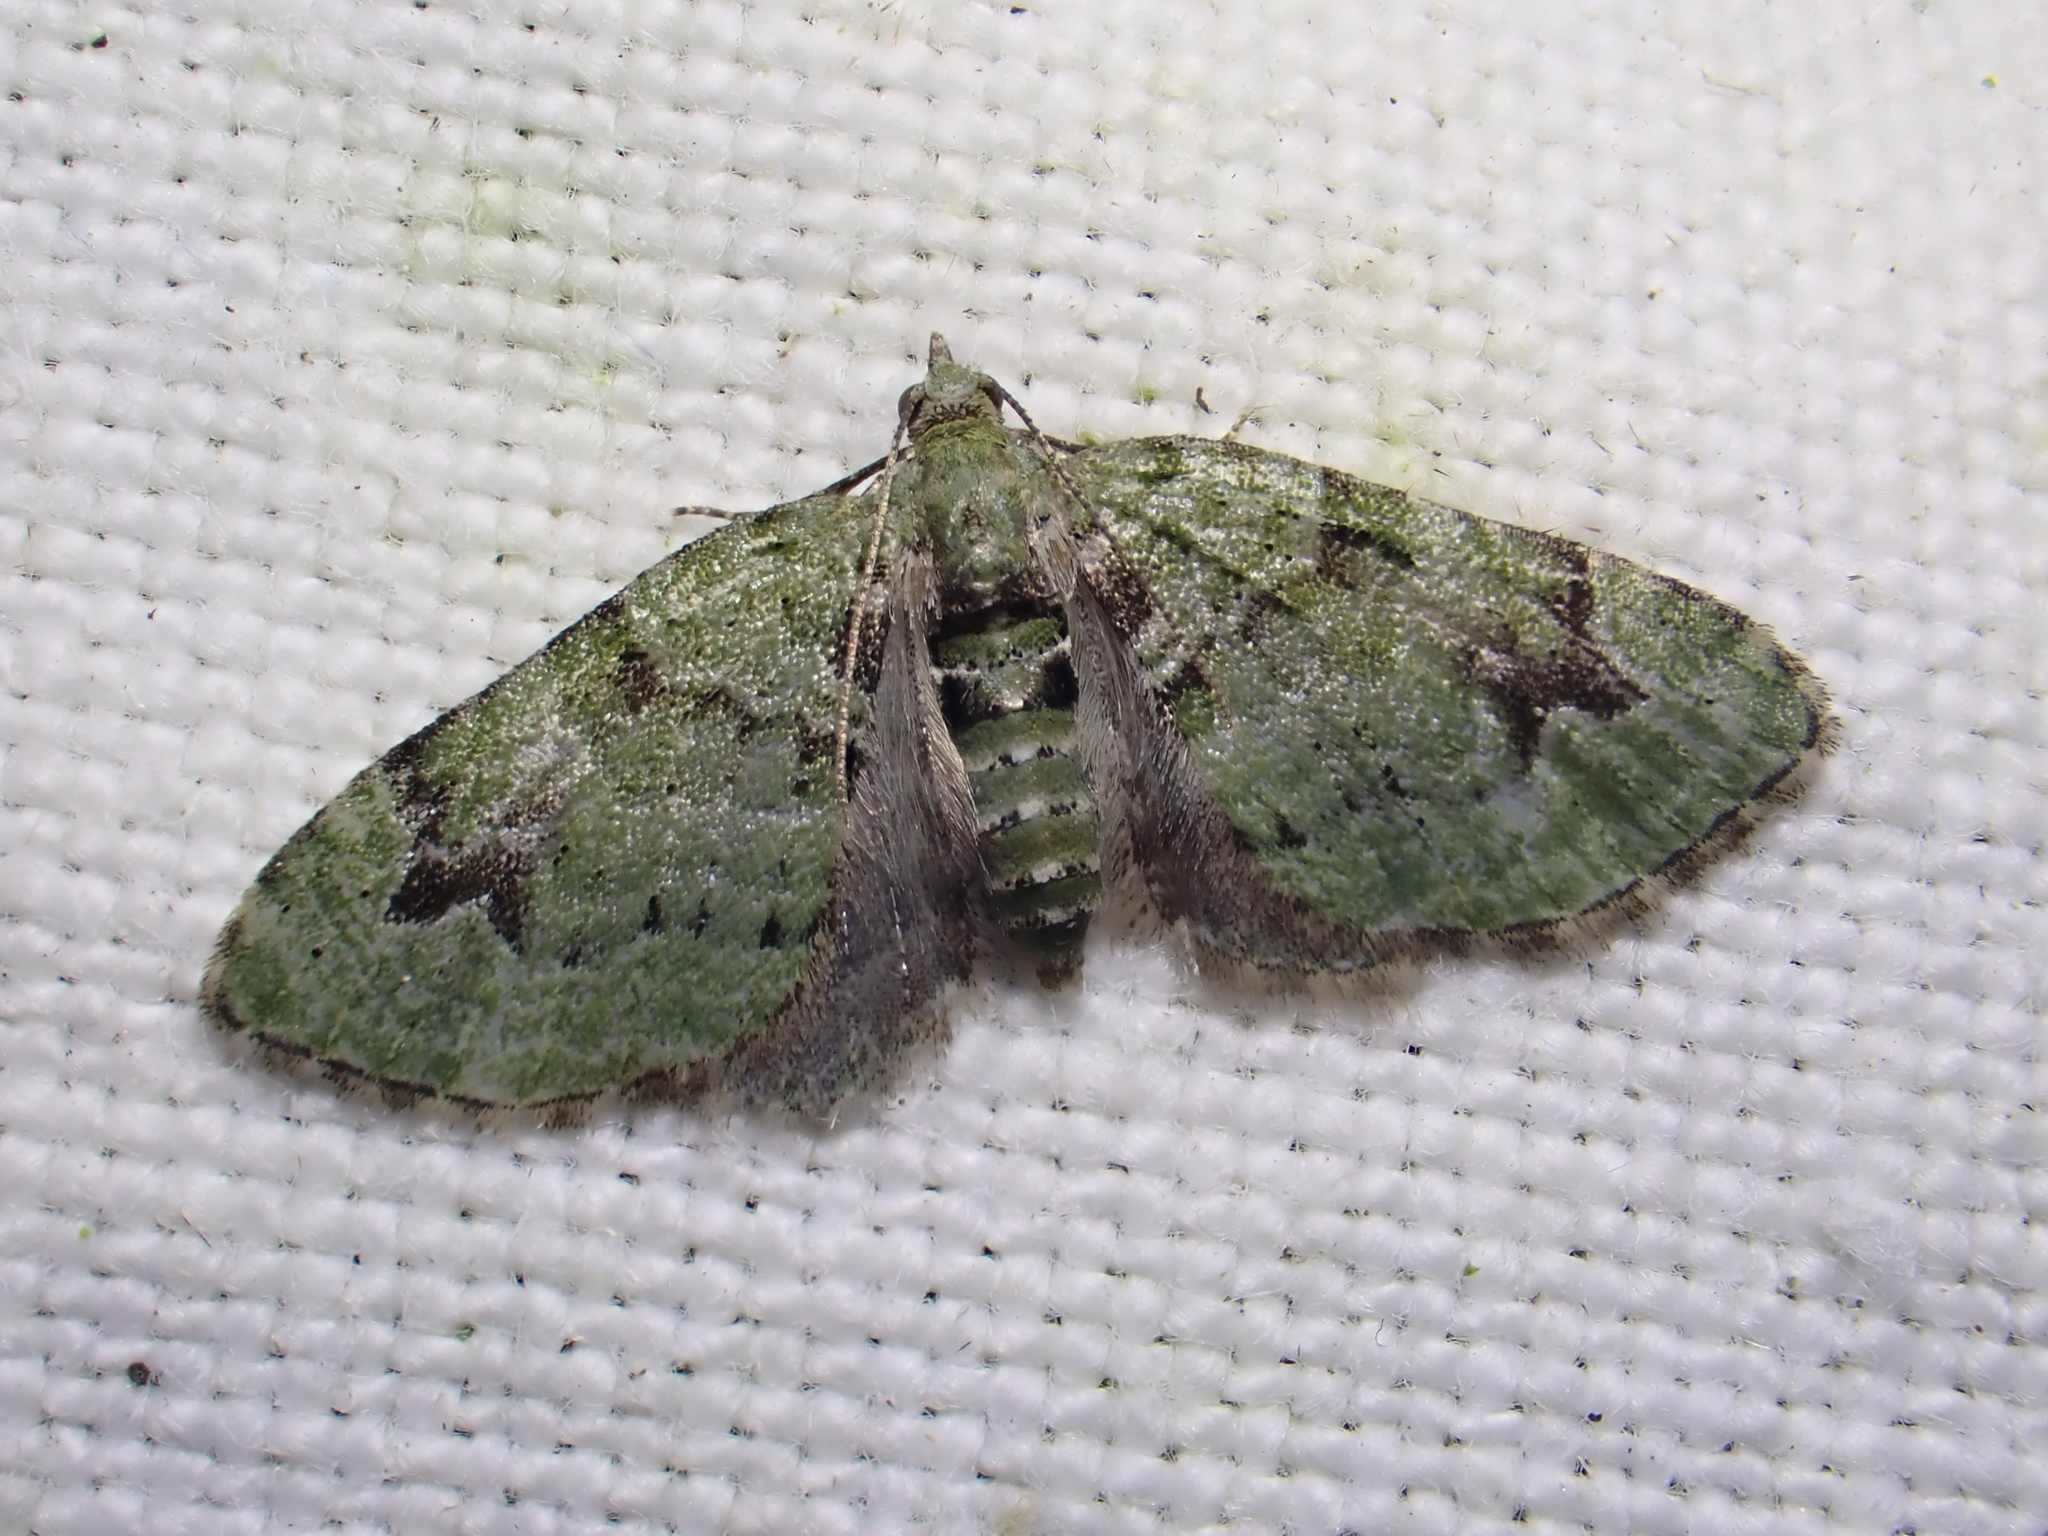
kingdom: Animalia
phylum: Arthropoda
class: Insecta
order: Lepidoptera
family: Geometridae
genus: Chloroclystis
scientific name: Chloroclystis v-ata
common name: V-pug
